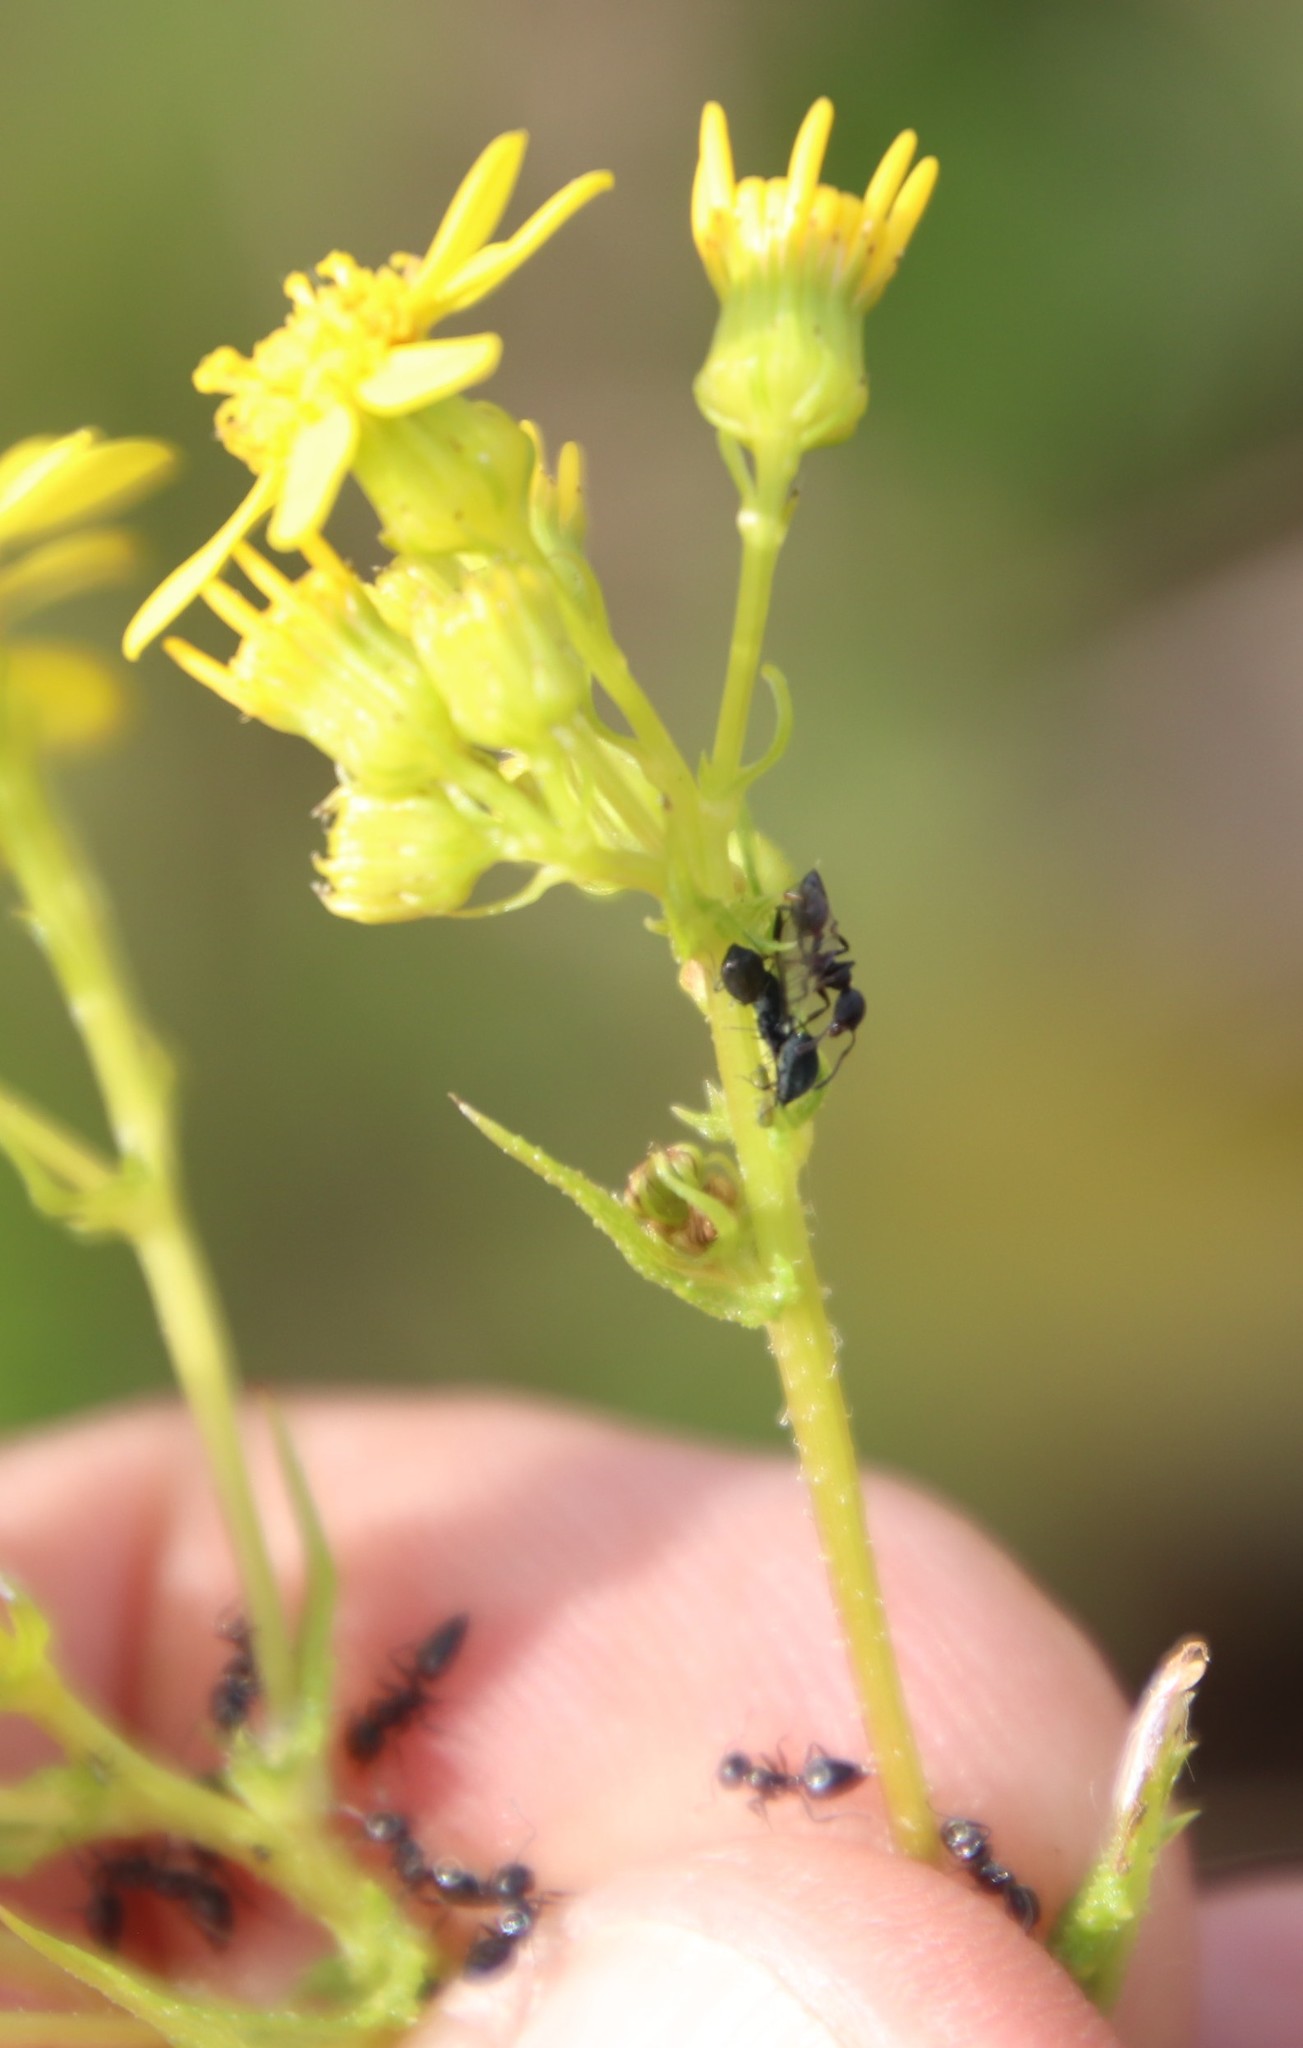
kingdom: Animalia
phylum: Arthropoda
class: Insecta
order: Hymenoptera
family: Formicidae
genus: Crematogaster
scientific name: Crematogaster peringueyi
